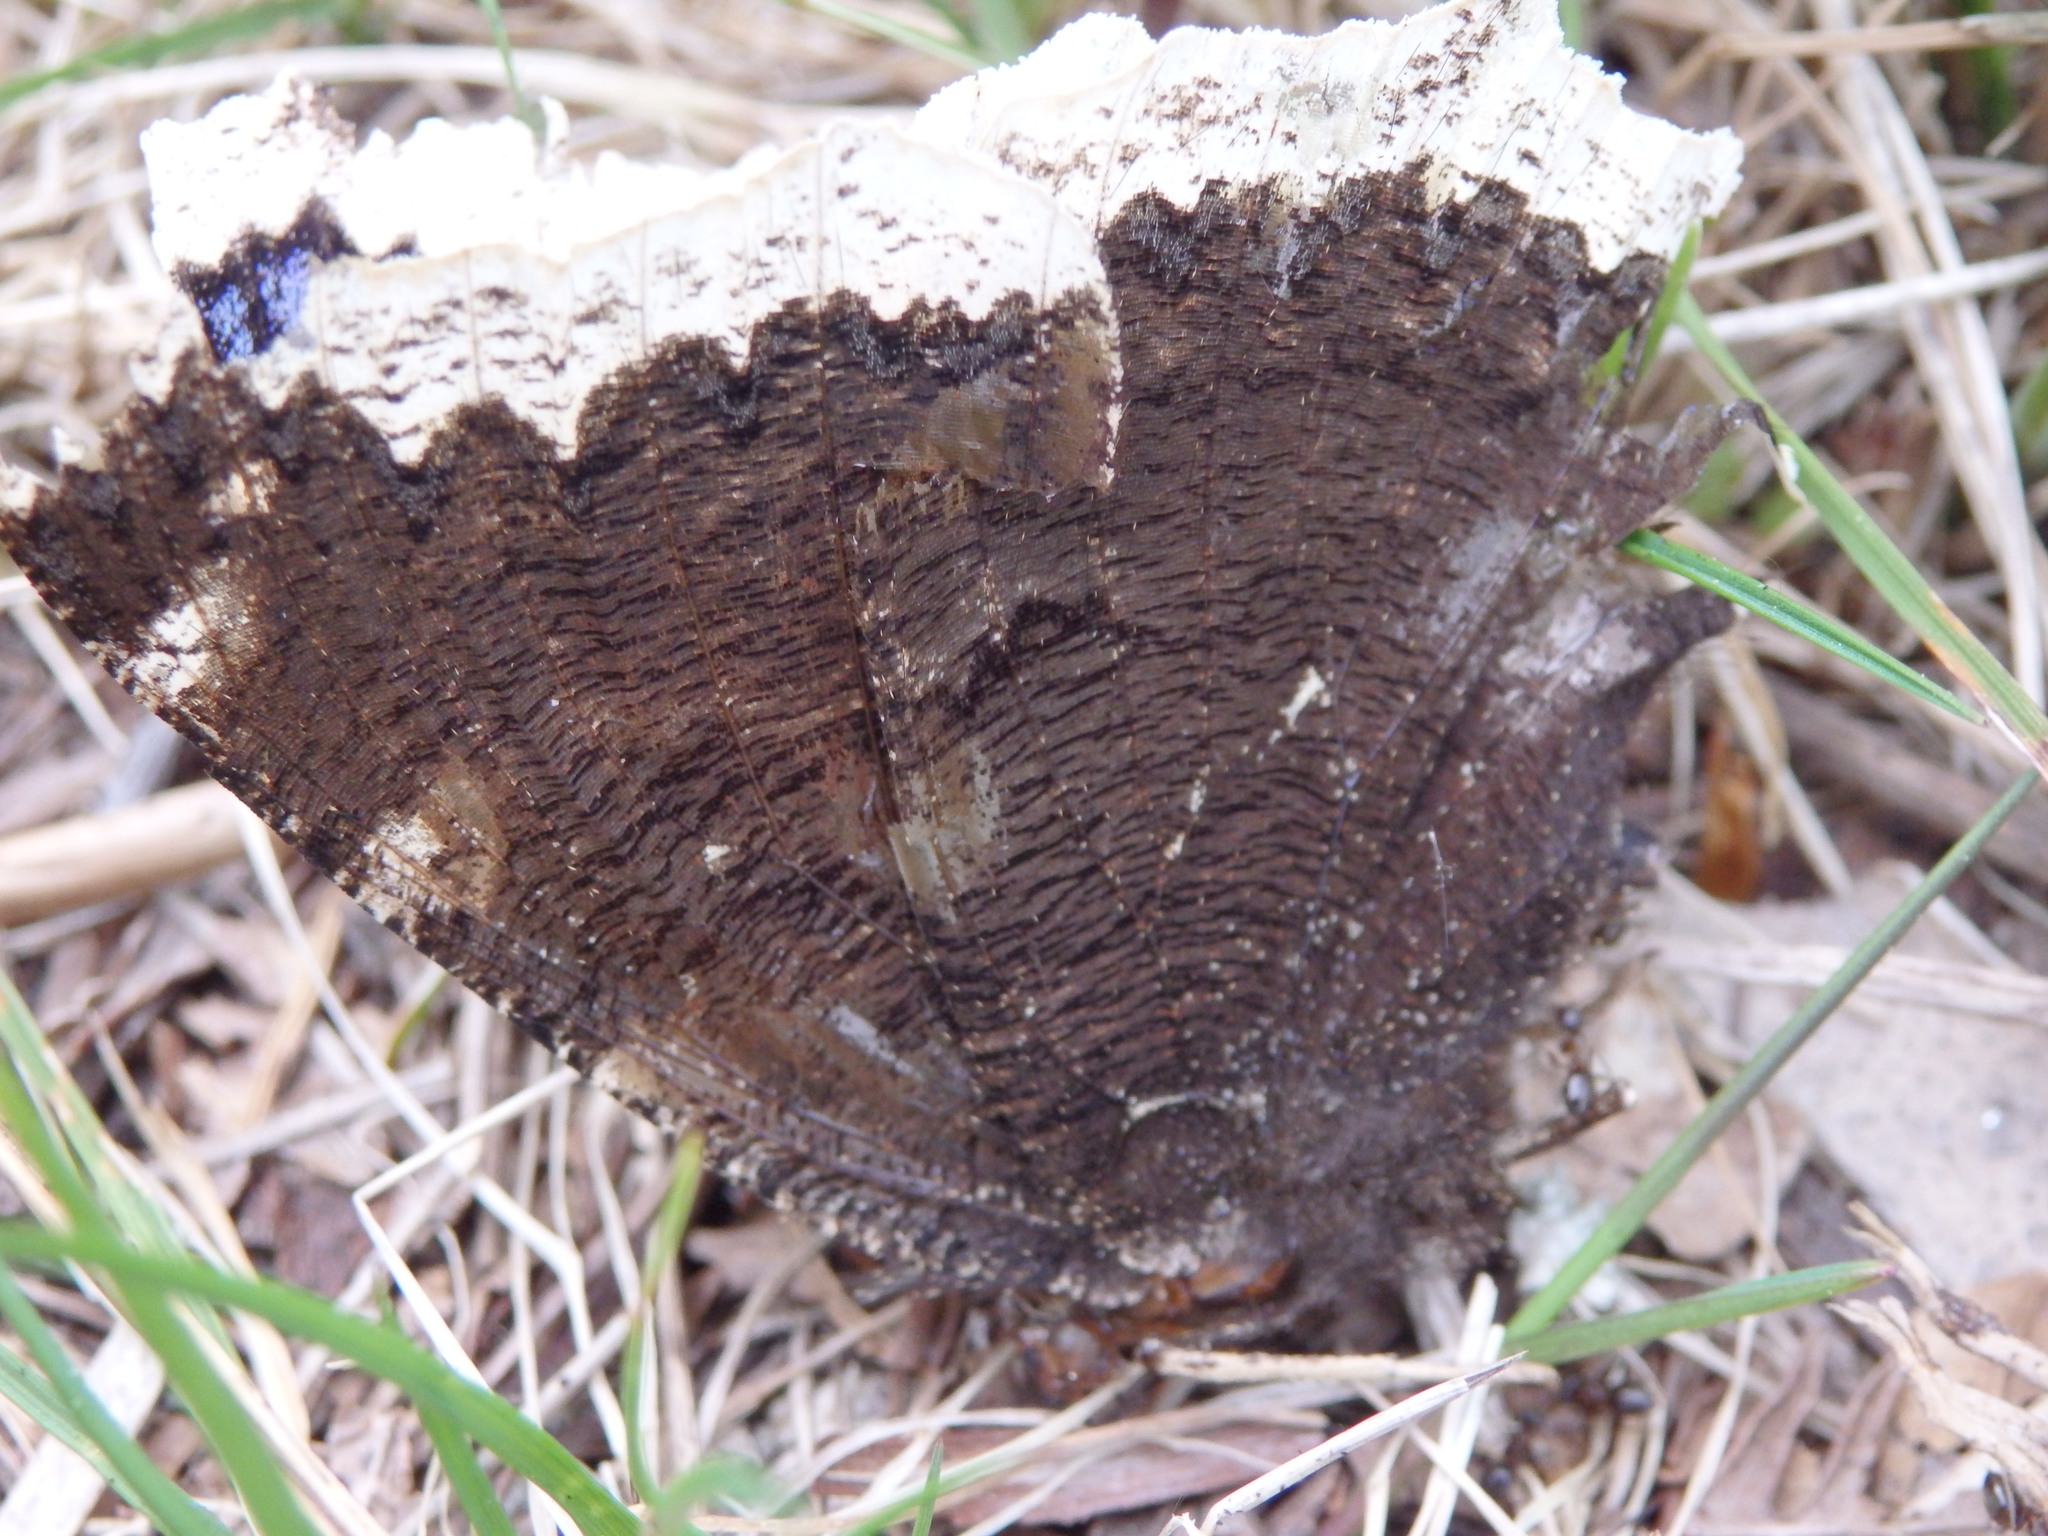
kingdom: Animalia
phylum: Arthropoda
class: Insecta
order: Lepidoptera
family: Nymphalidae
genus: Nymphalis
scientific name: Nymphalis antiopa
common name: Camberwell beauty
